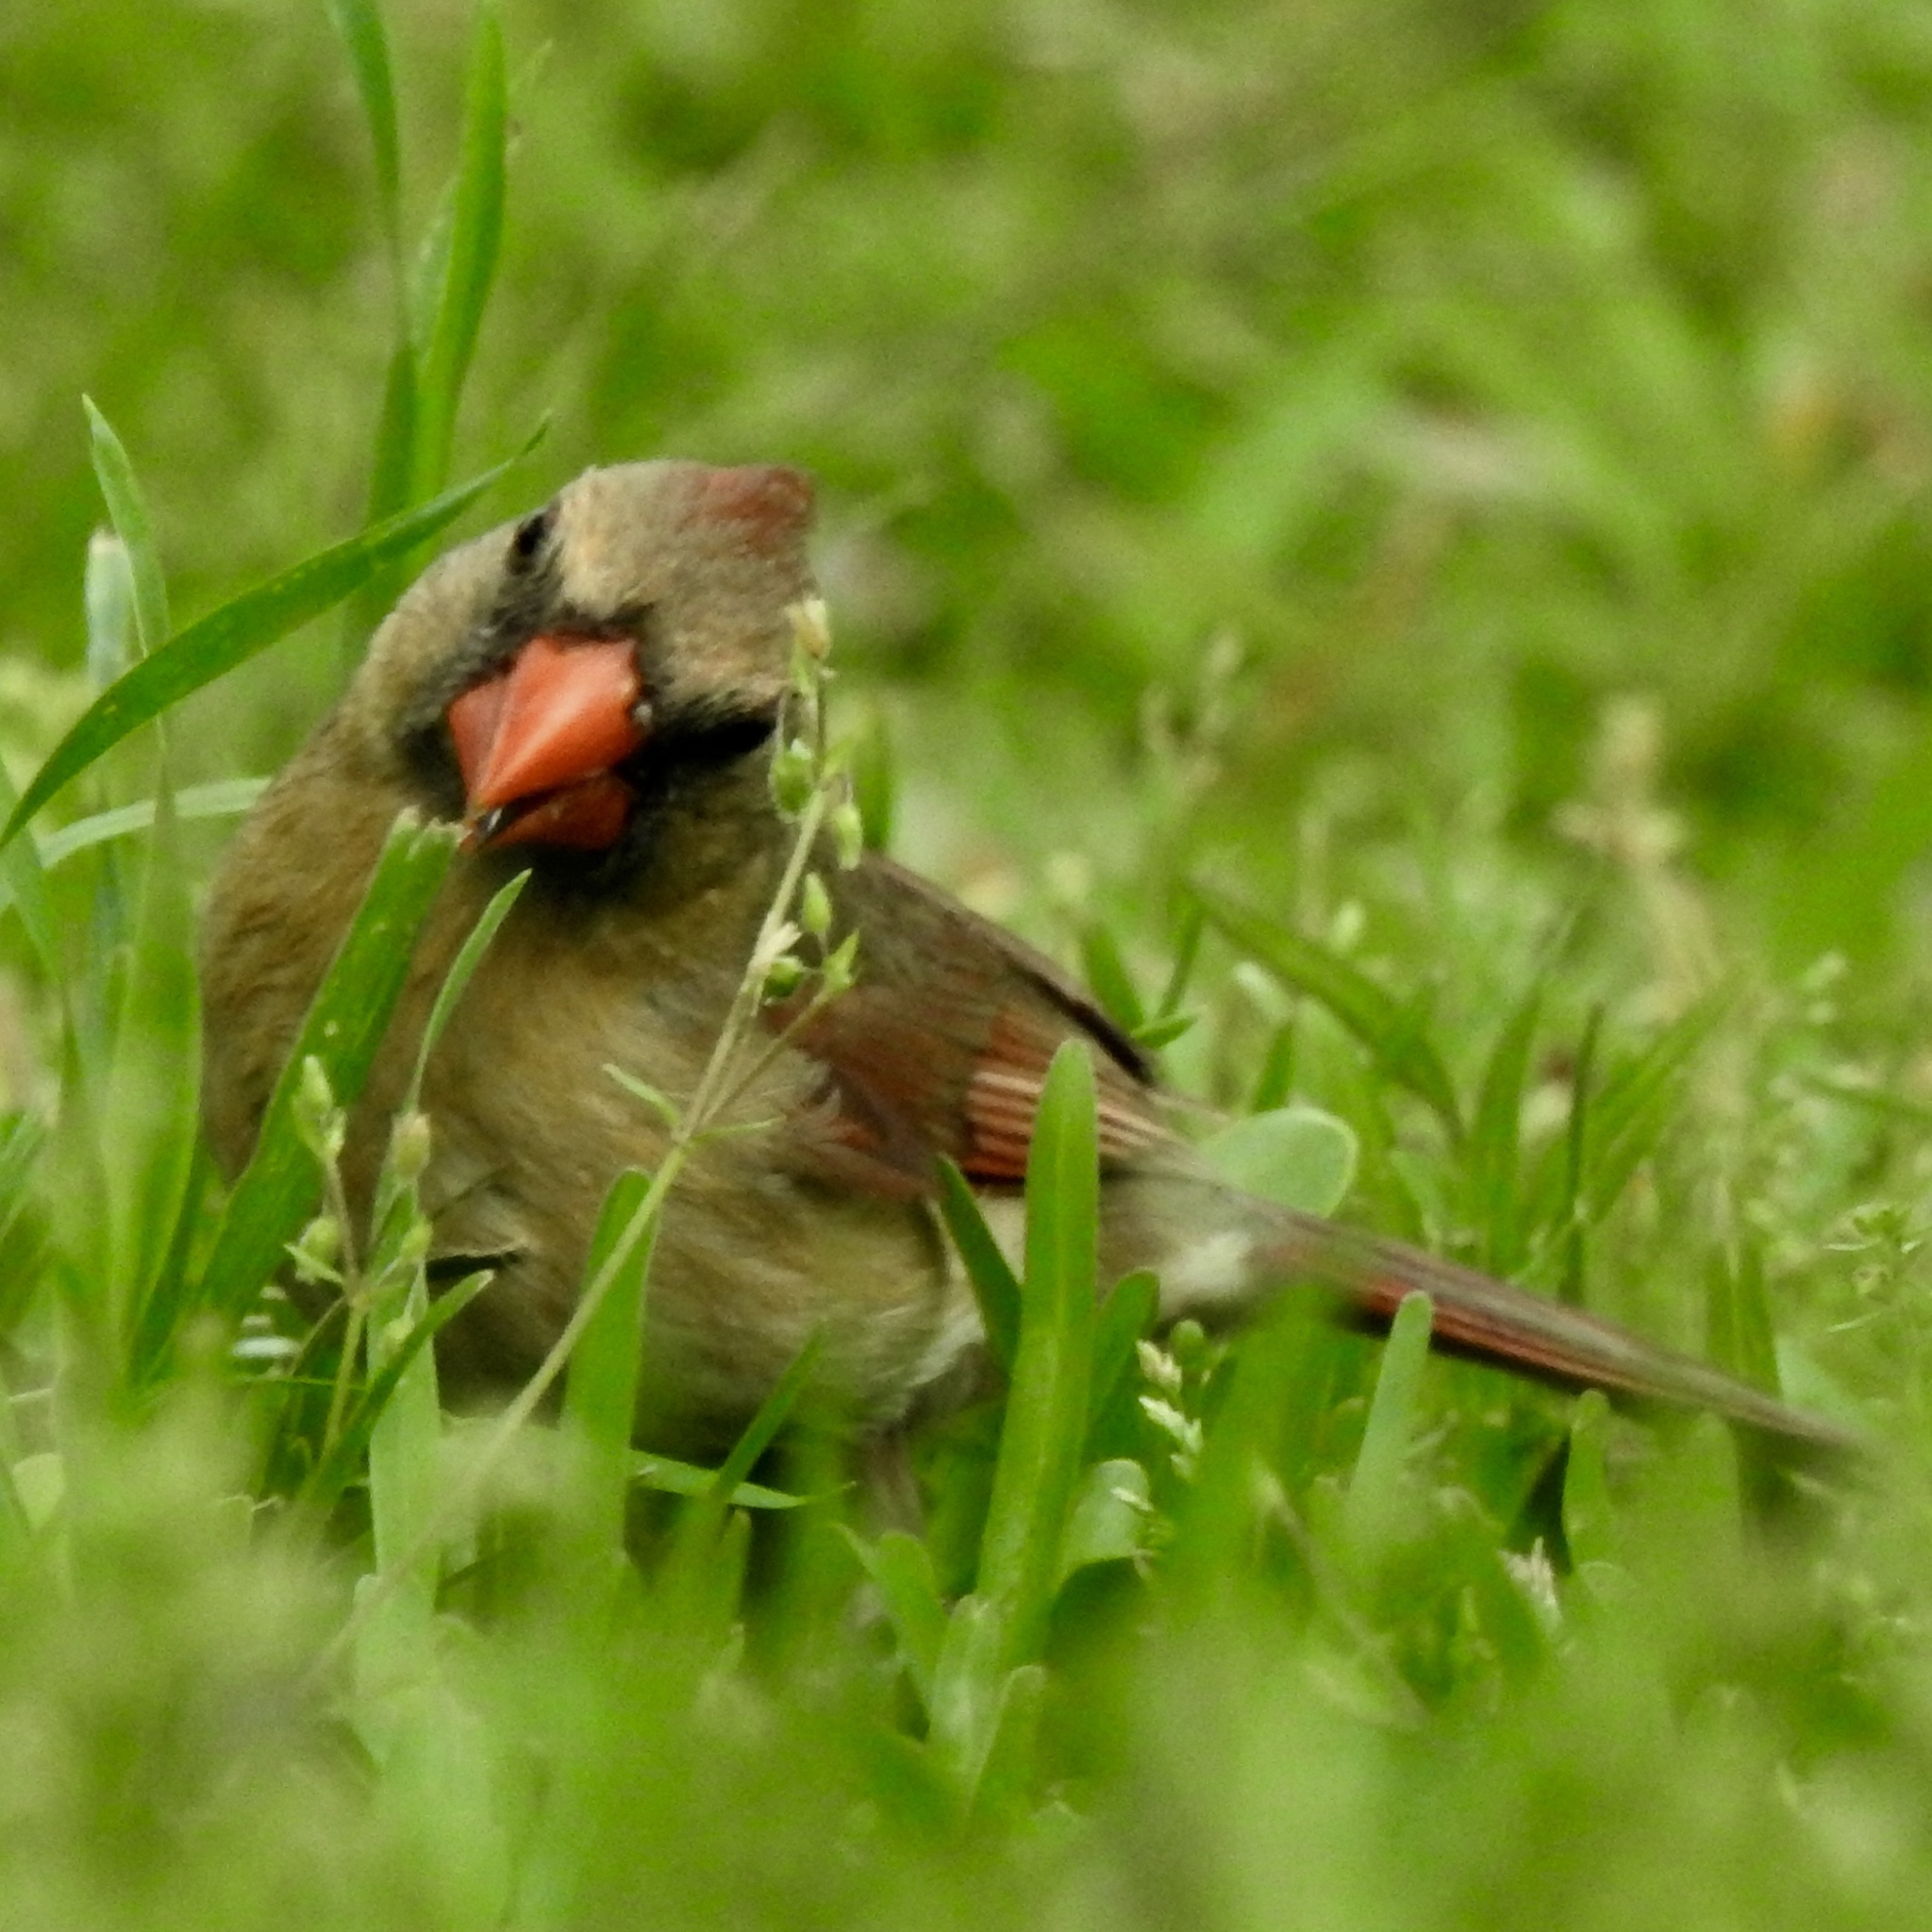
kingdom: Animalia
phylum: Chordata
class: Aves
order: Passeriformes
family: Cardinalidae
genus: Cardinalis
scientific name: Cardinalis cardinalis
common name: Northern cardinal
